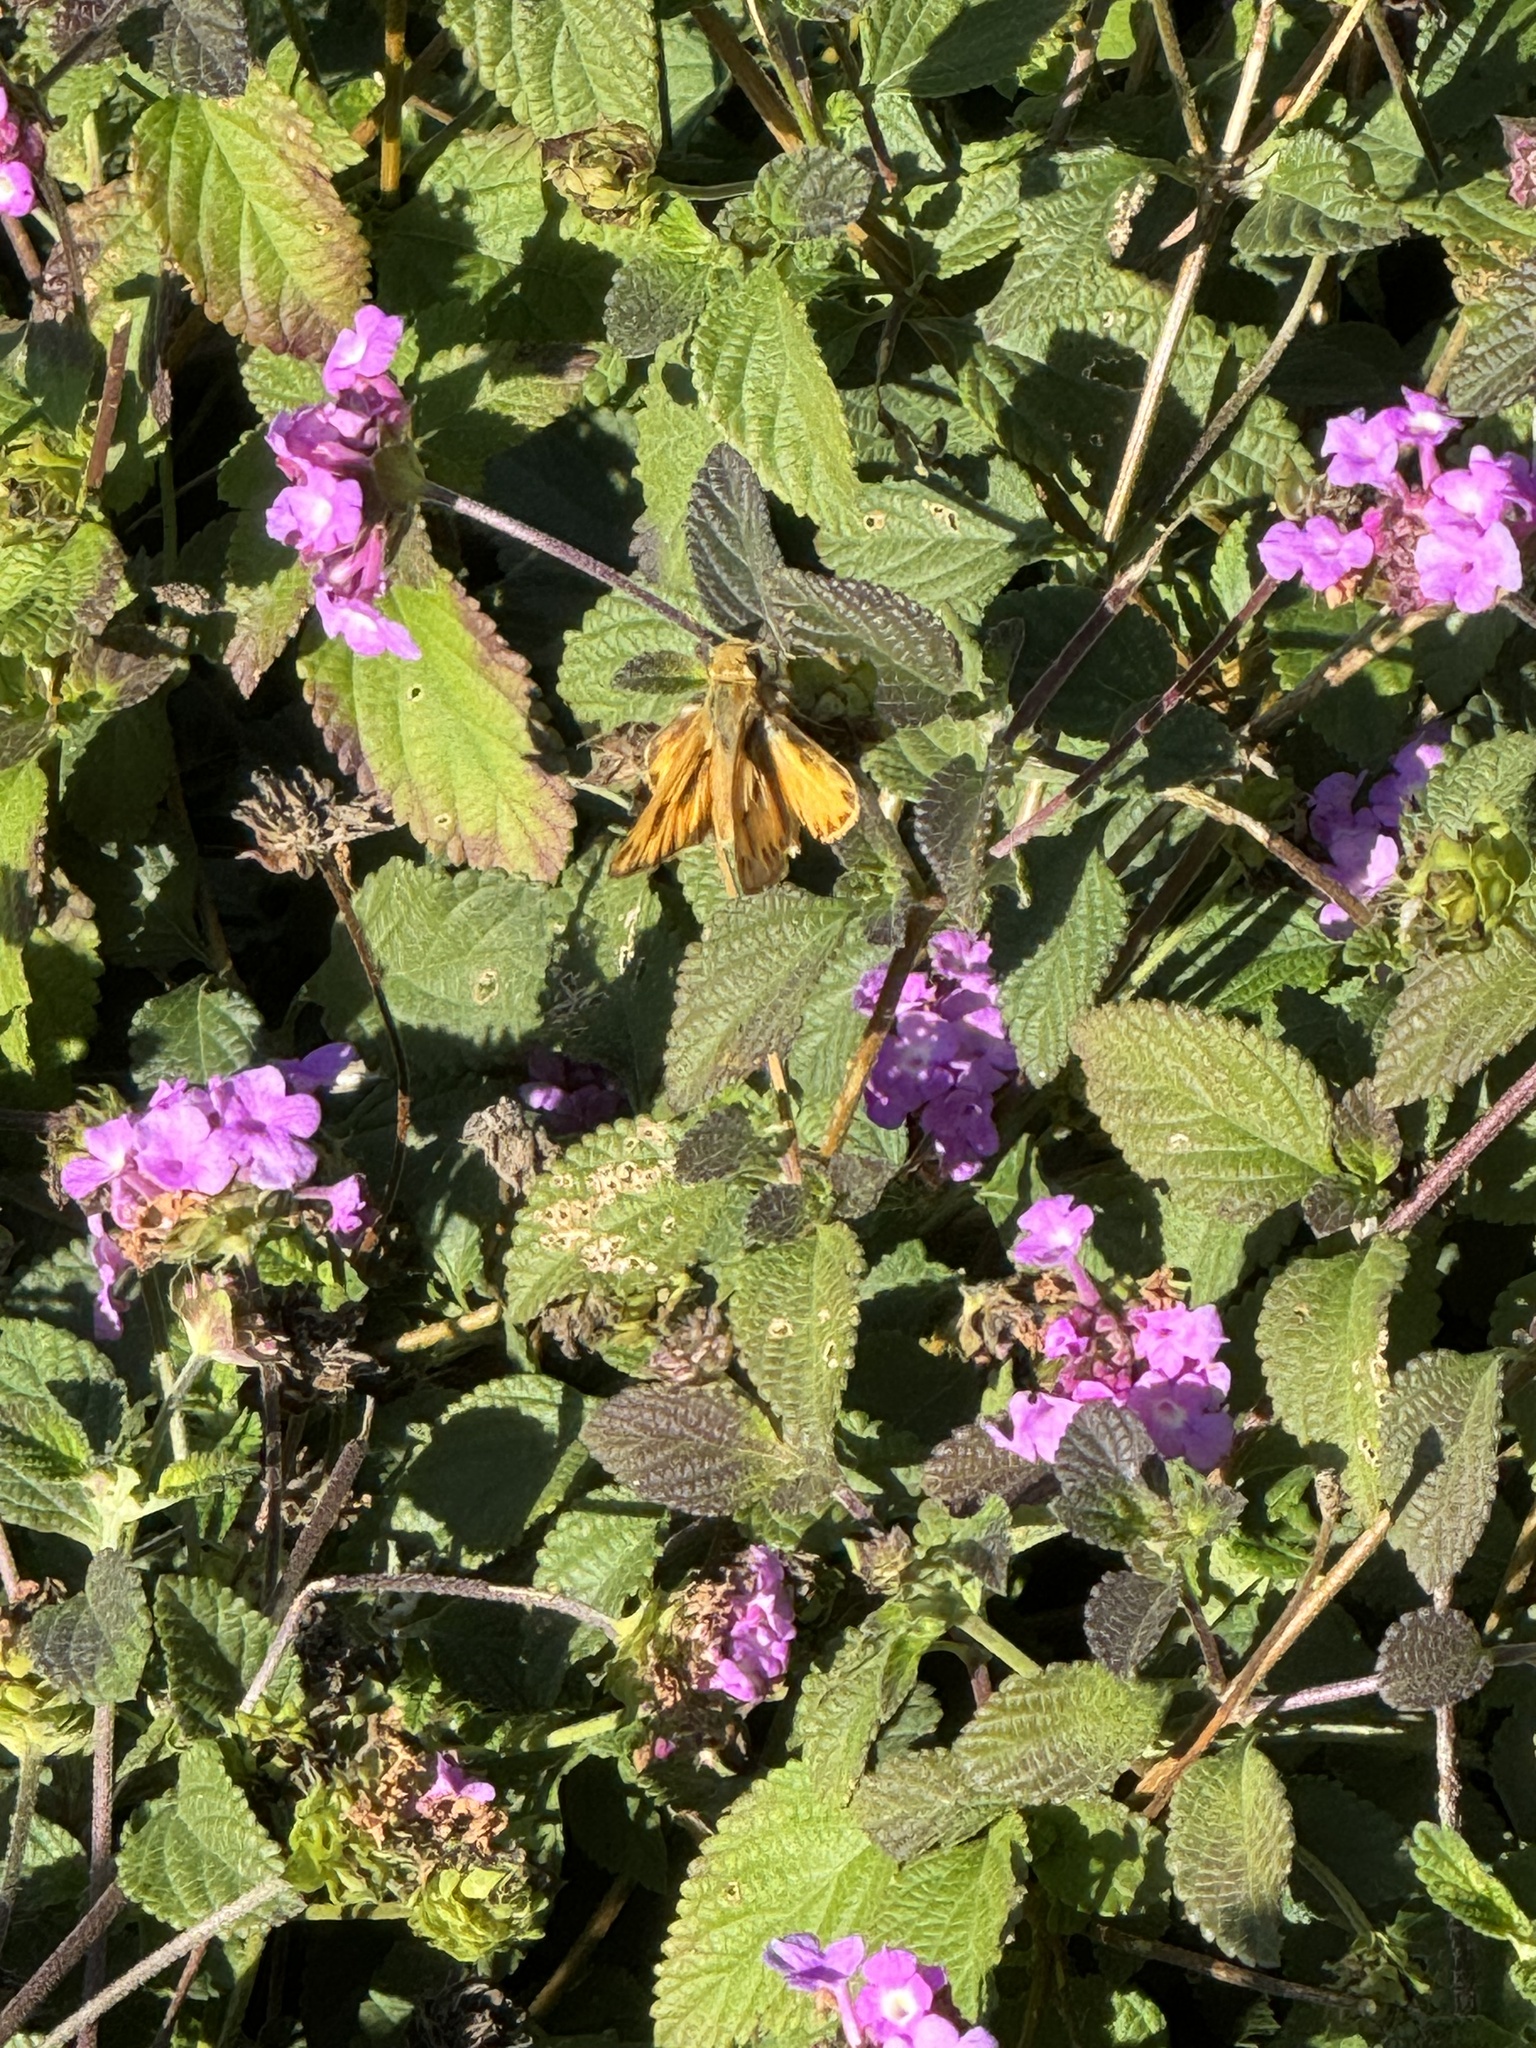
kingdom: Animalia
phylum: Arthropoda
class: Insecta
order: Lepidoptera
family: Hesperiidae
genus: Hylephila
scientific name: Hylephila phyleus
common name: Fiery skipper
